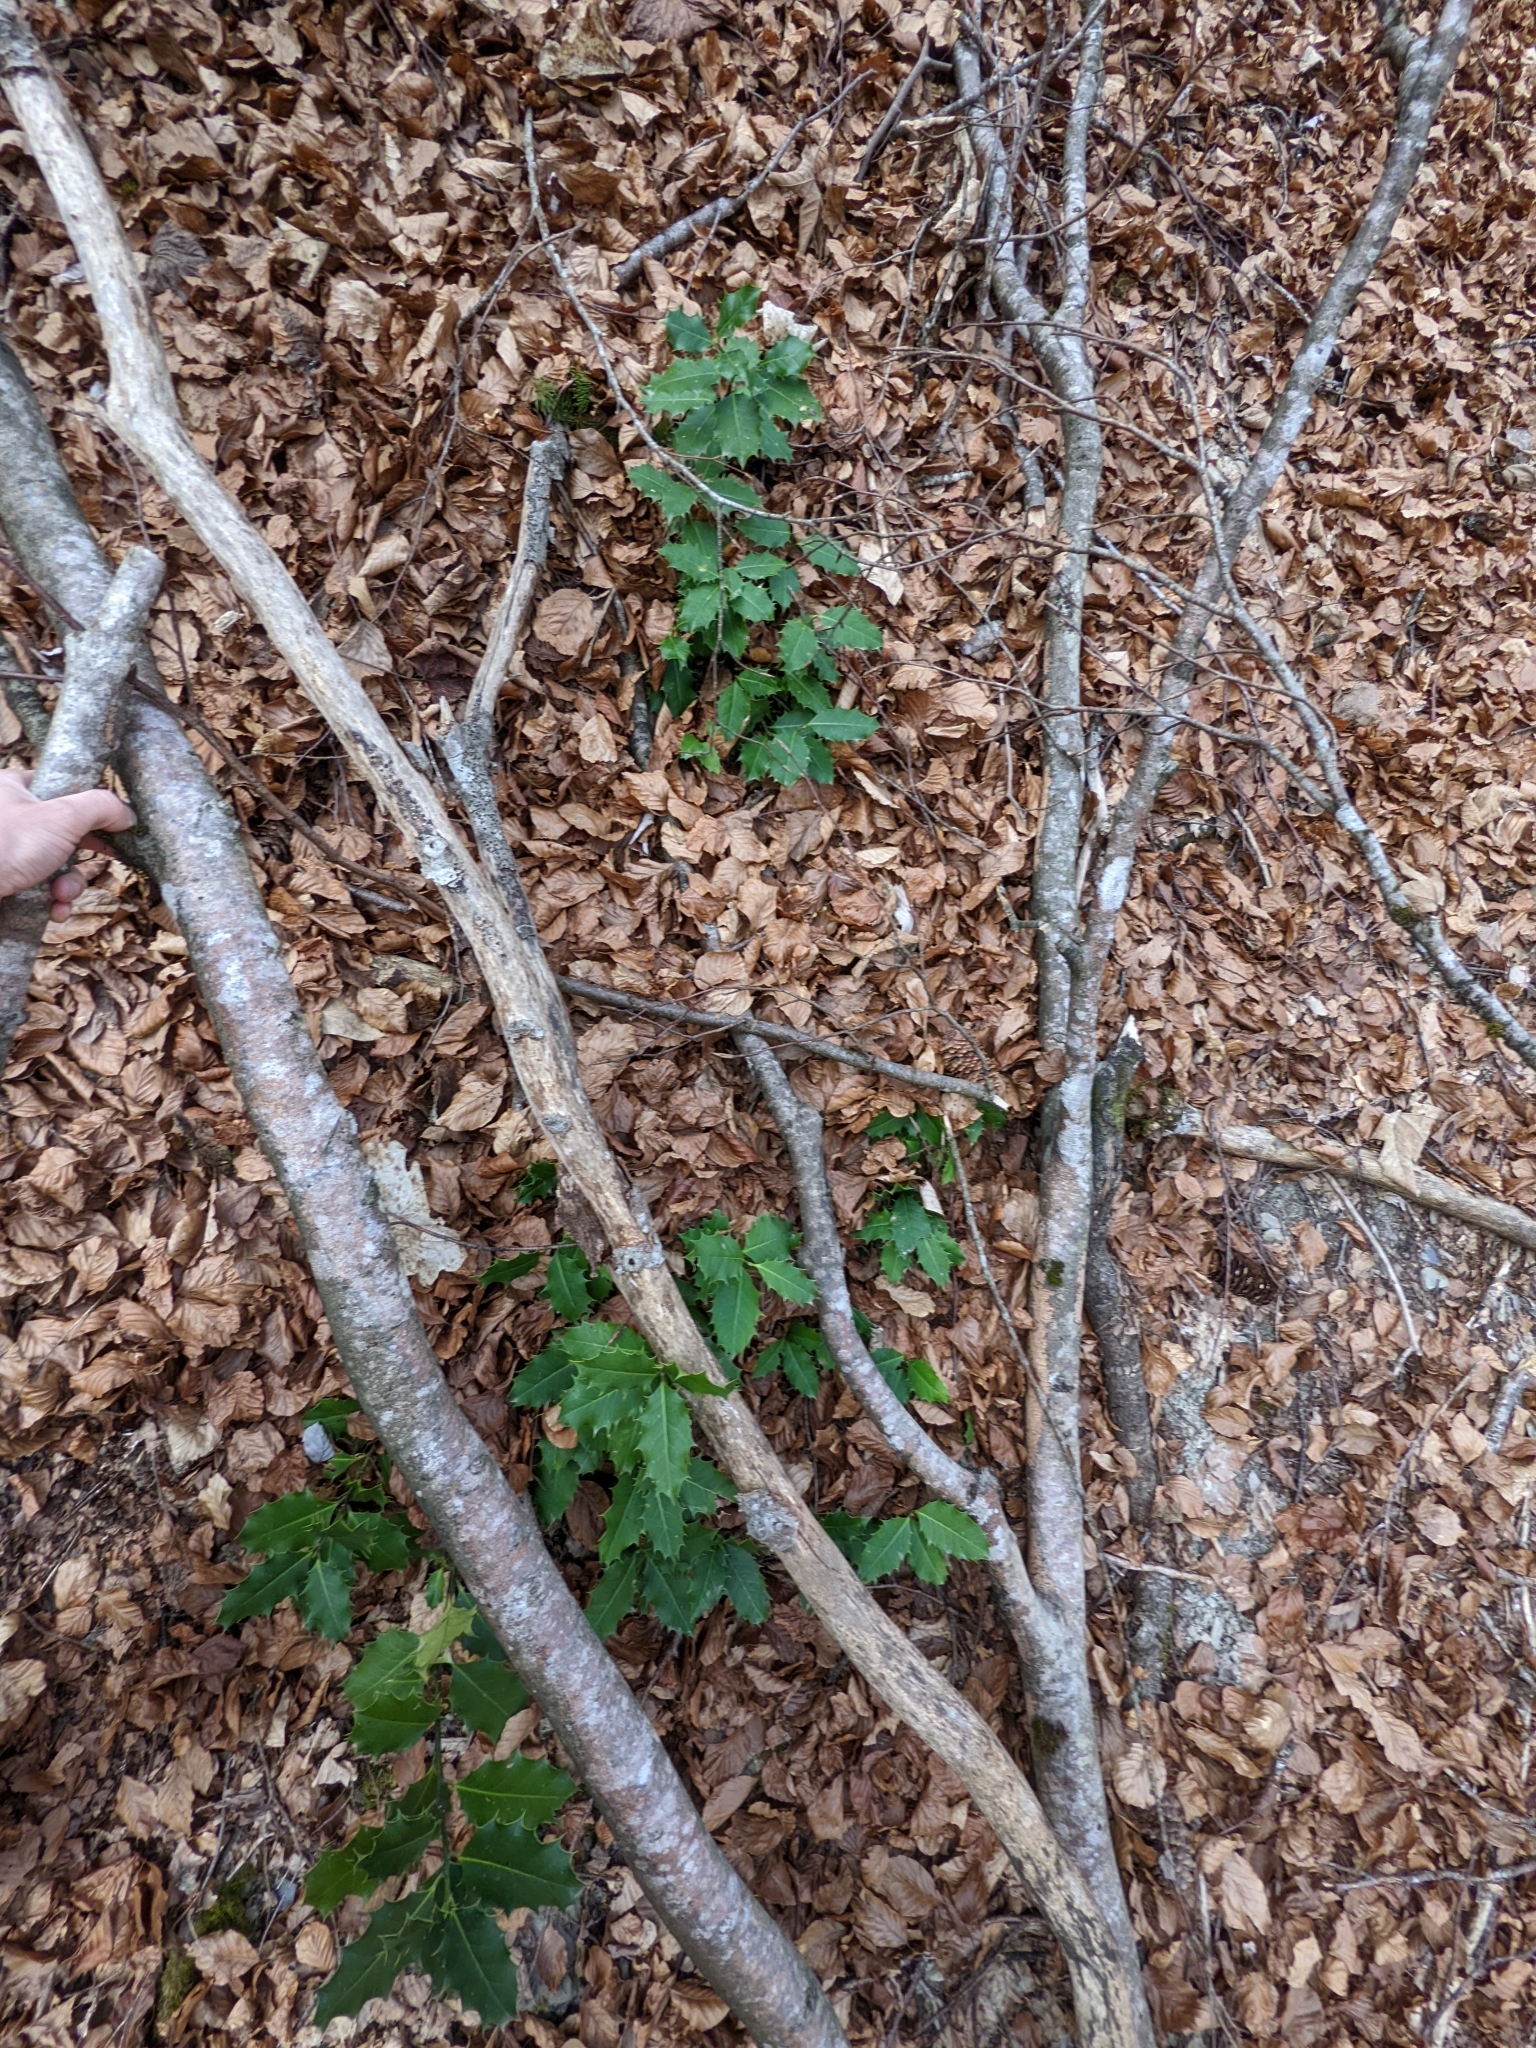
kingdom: Plantae
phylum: Tracheophyta
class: Magnoliopsida
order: Aquifoliales
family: Aquifoliaceae
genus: Ilex
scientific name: Ilex aquifolium
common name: English holly
